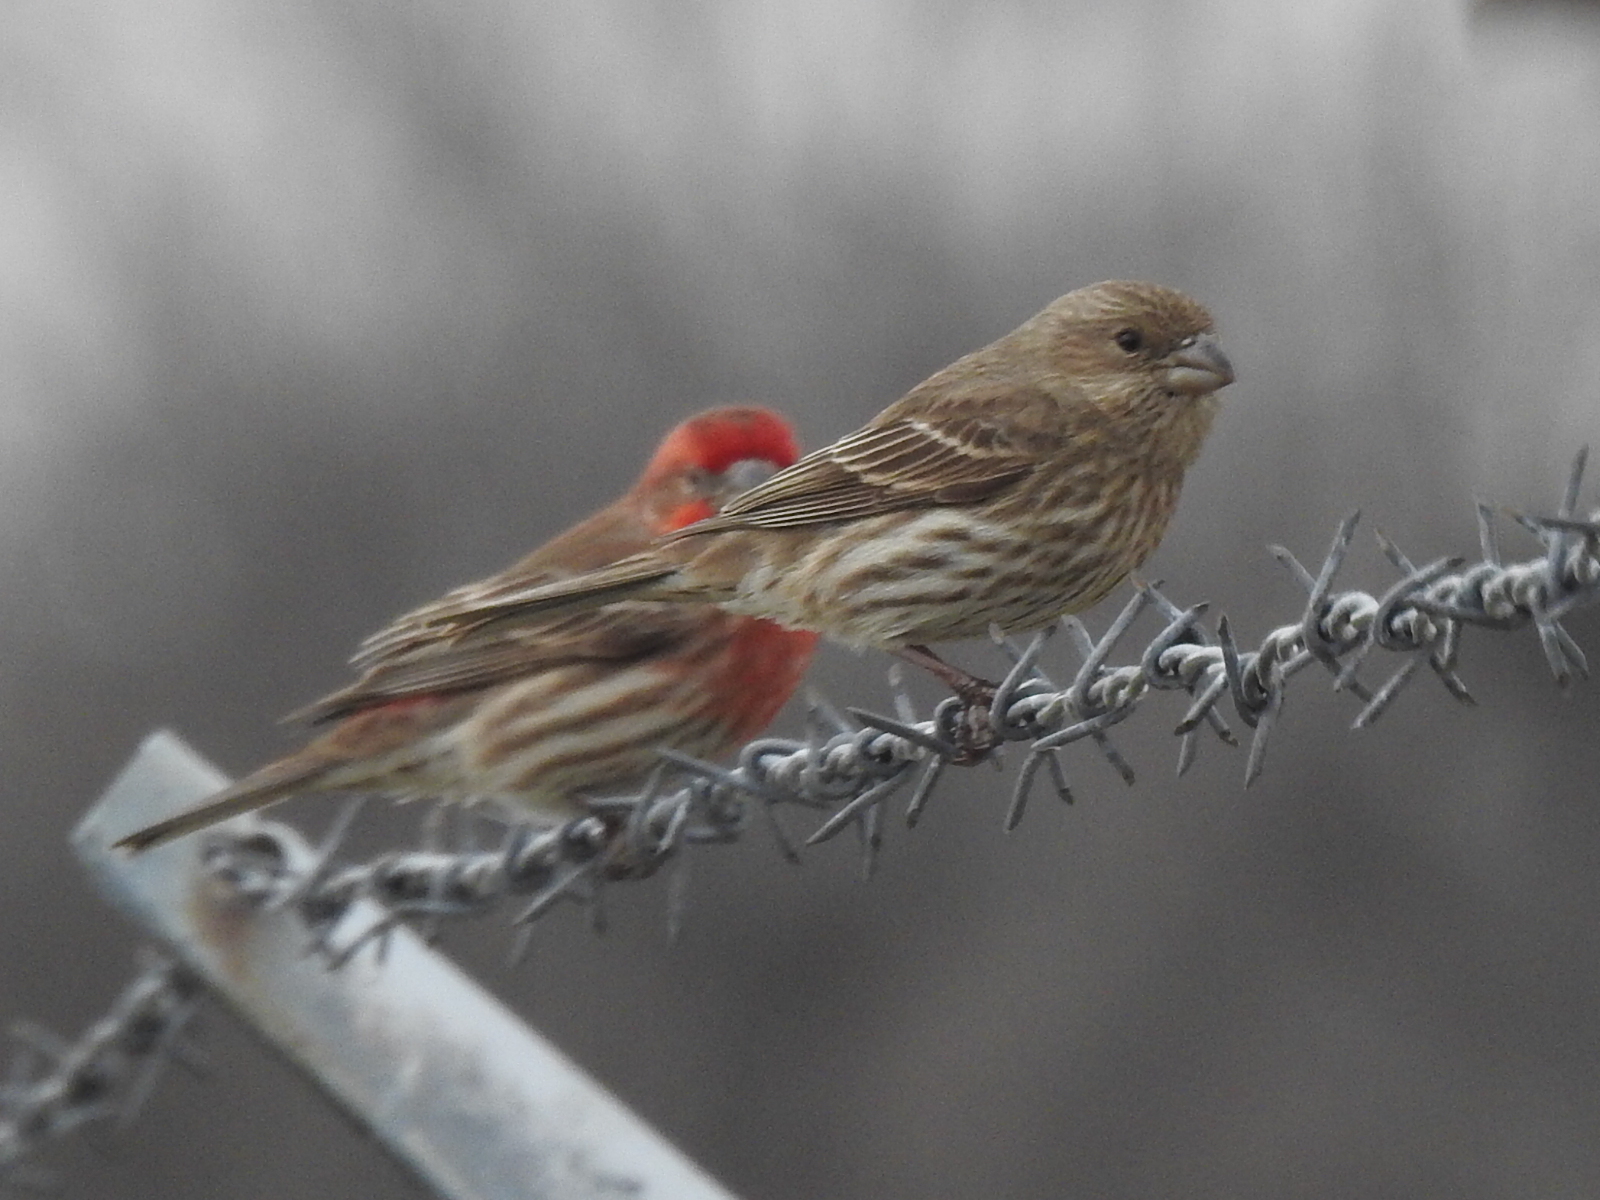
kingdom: Animalia
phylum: Chordata
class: Aves
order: Passeriformes
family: Fringillidae
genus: Haemorhous
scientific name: Haemorhous mexicanus
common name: House finch
